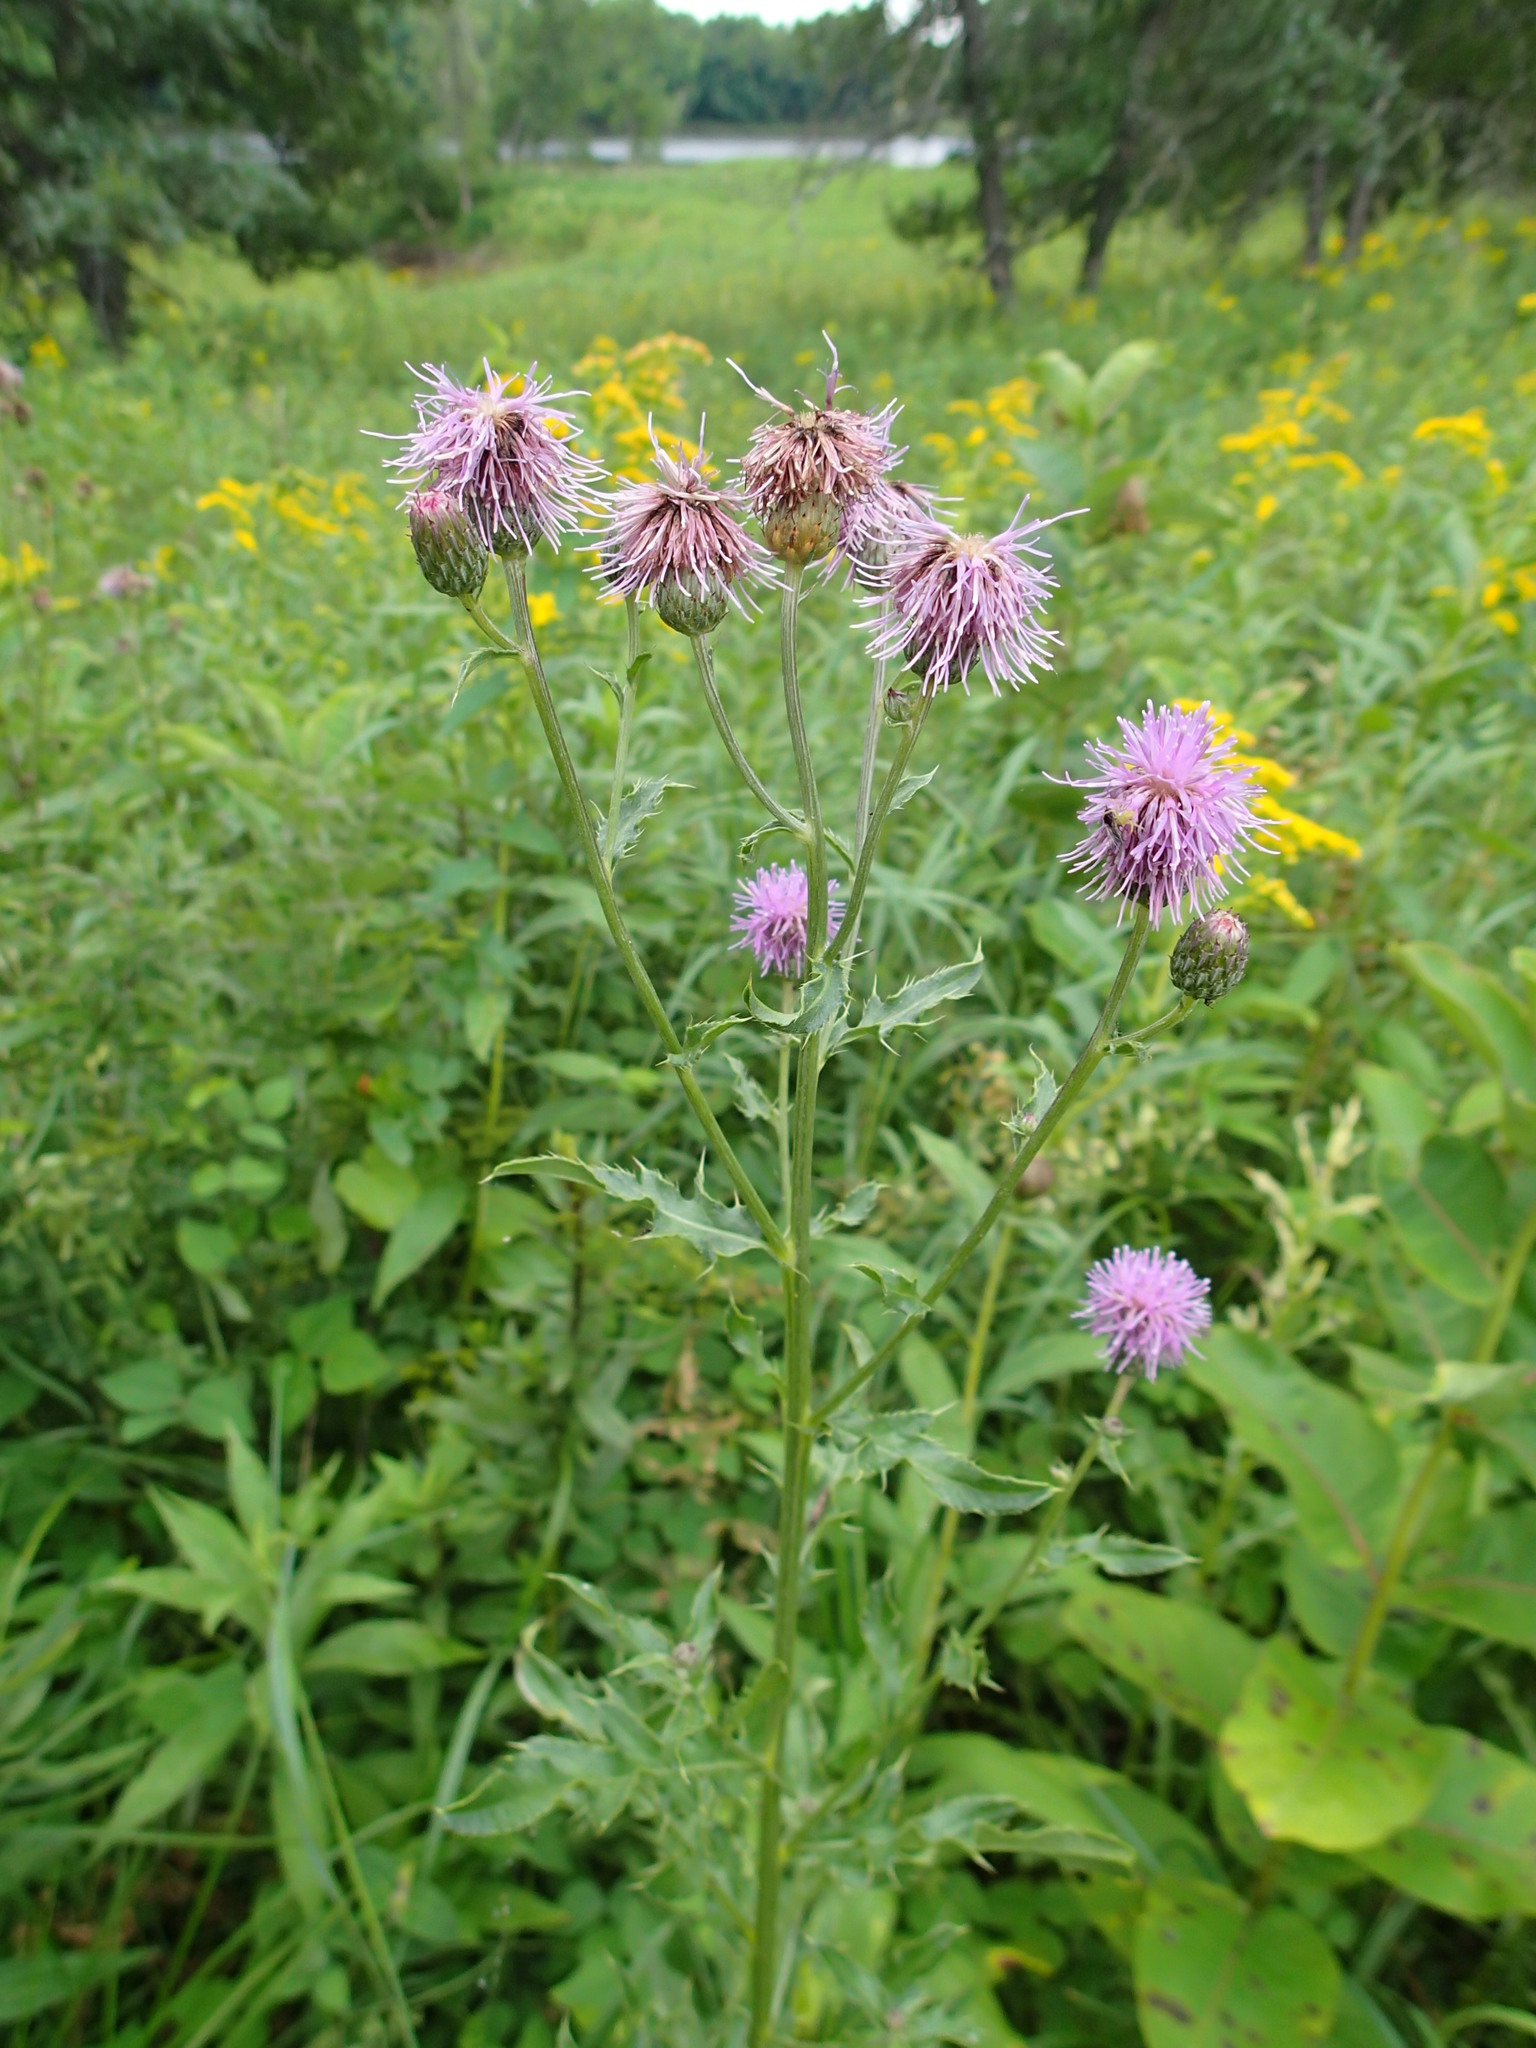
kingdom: Plantae
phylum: Tracheophyta
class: Magnoliopsida
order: Asterales
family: Asteraceae
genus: Cirsium
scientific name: Cirsium arvense
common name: Creeping thistle
